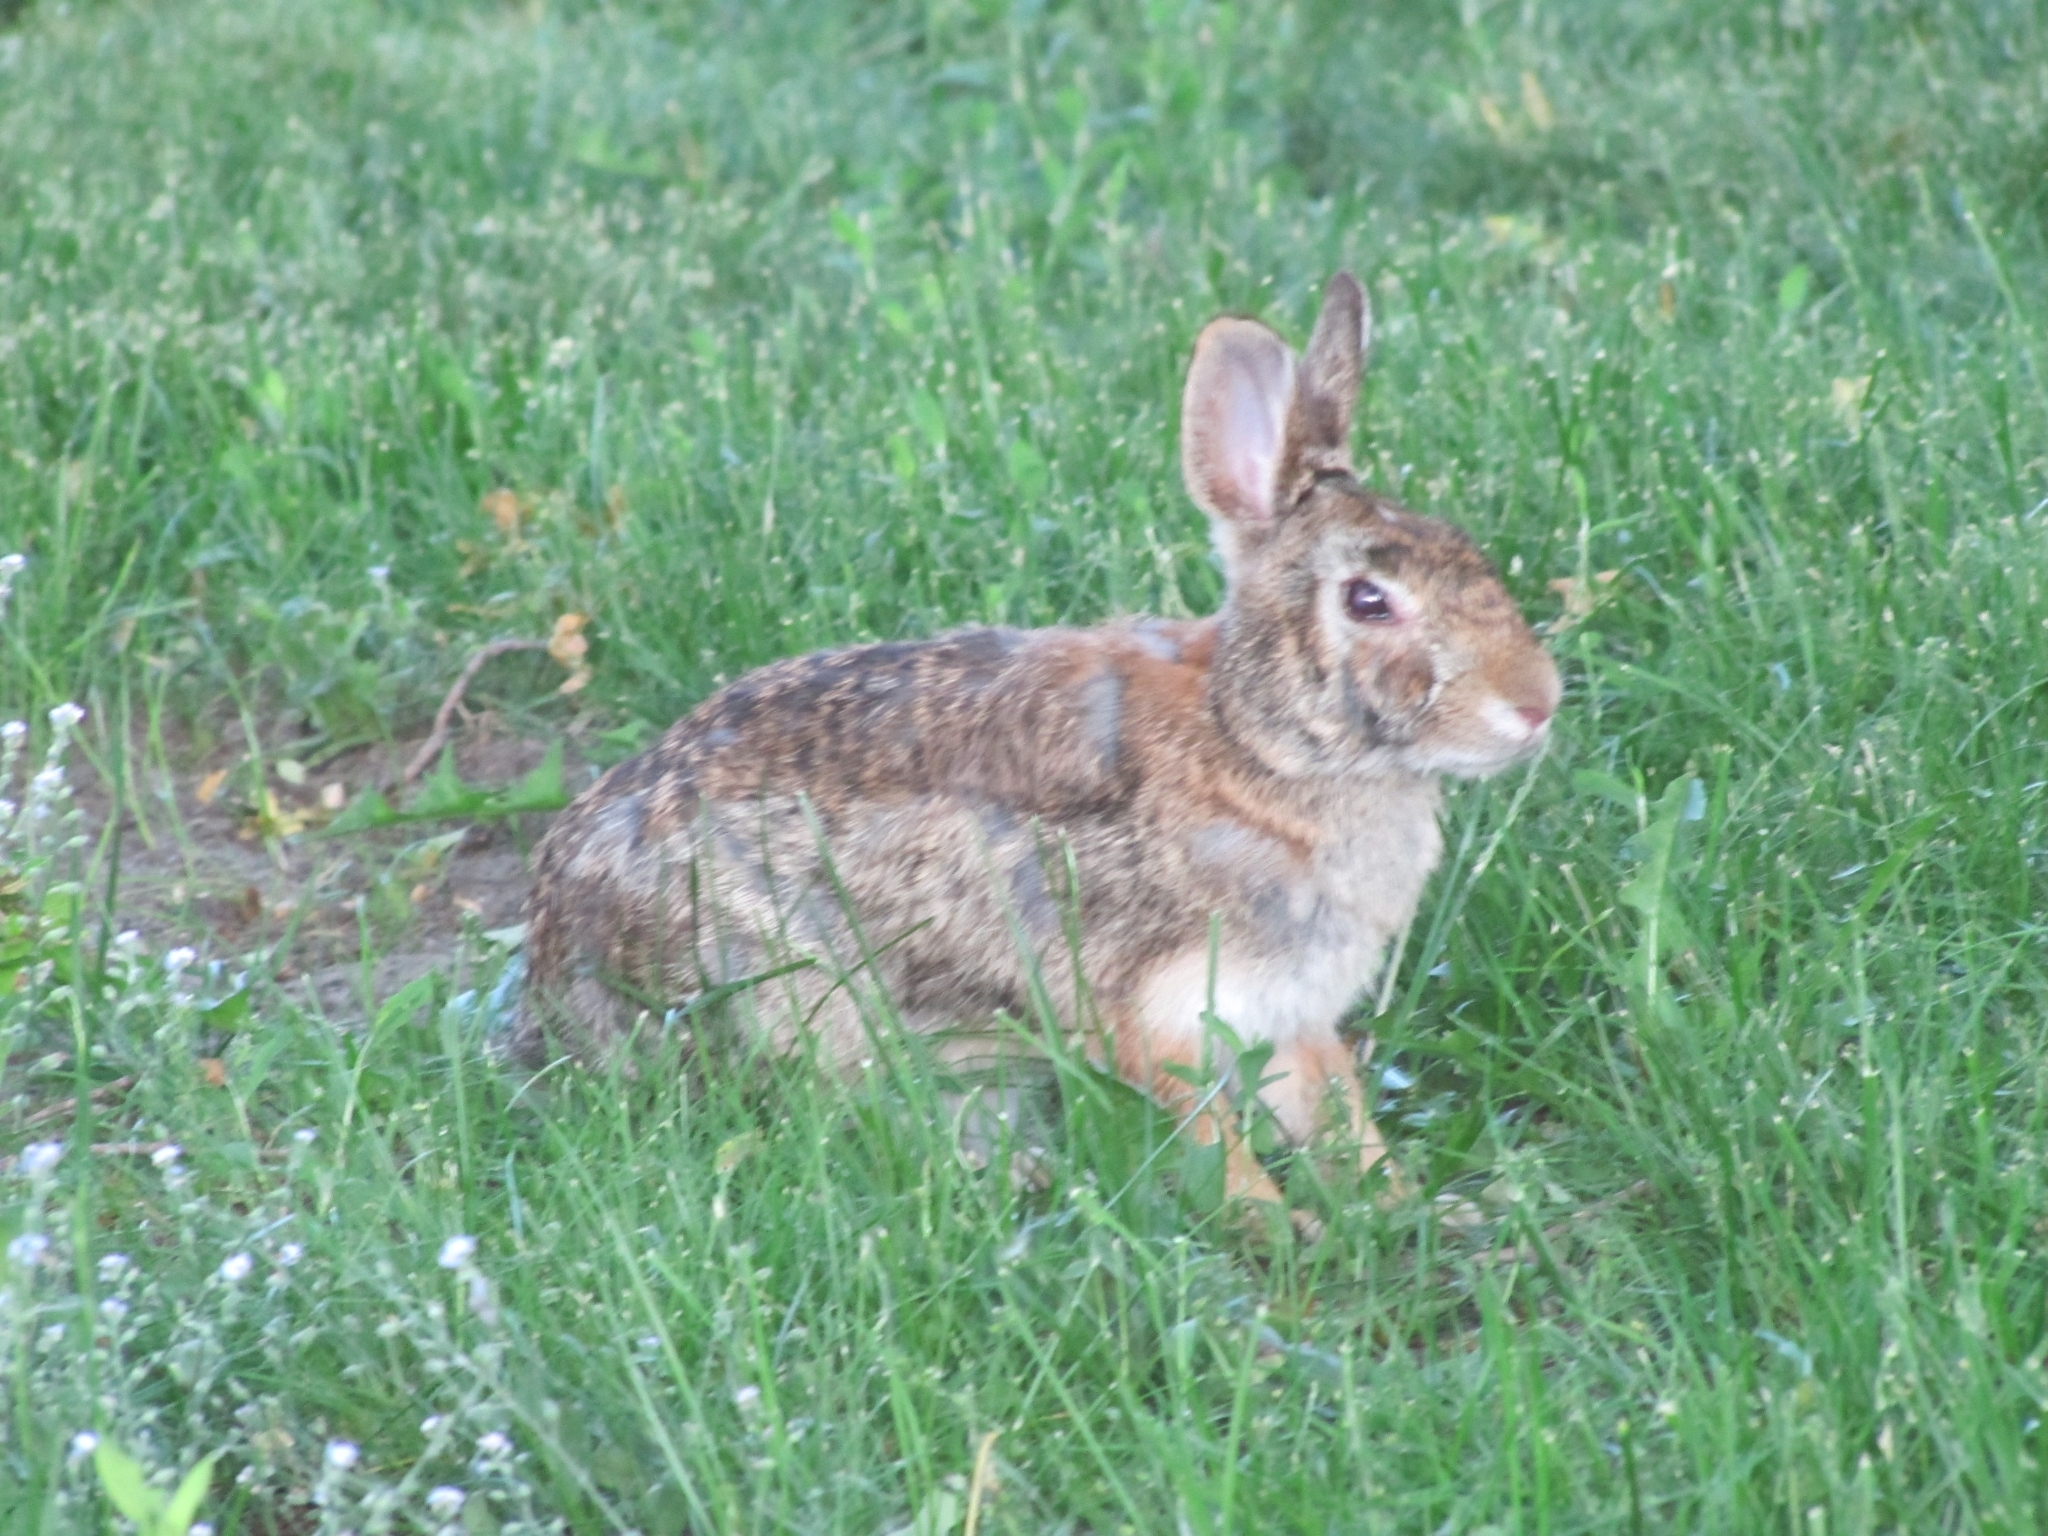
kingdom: Animalia
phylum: Chordata
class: Mammalia
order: Lagomorpha
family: Leporidae
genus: Sylvilagus
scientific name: Sylvilagus floridanus
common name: Eastern cottontail
